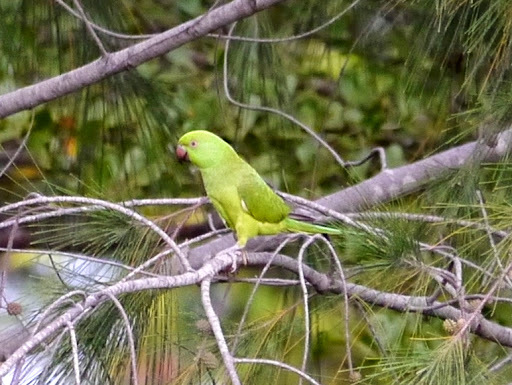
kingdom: Animalia
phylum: Chordata
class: Aves
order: Psittaciformes
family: Psittacidae
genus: Psittacula
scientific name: Psittacula krameri
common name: Rose-ringed parakeet
